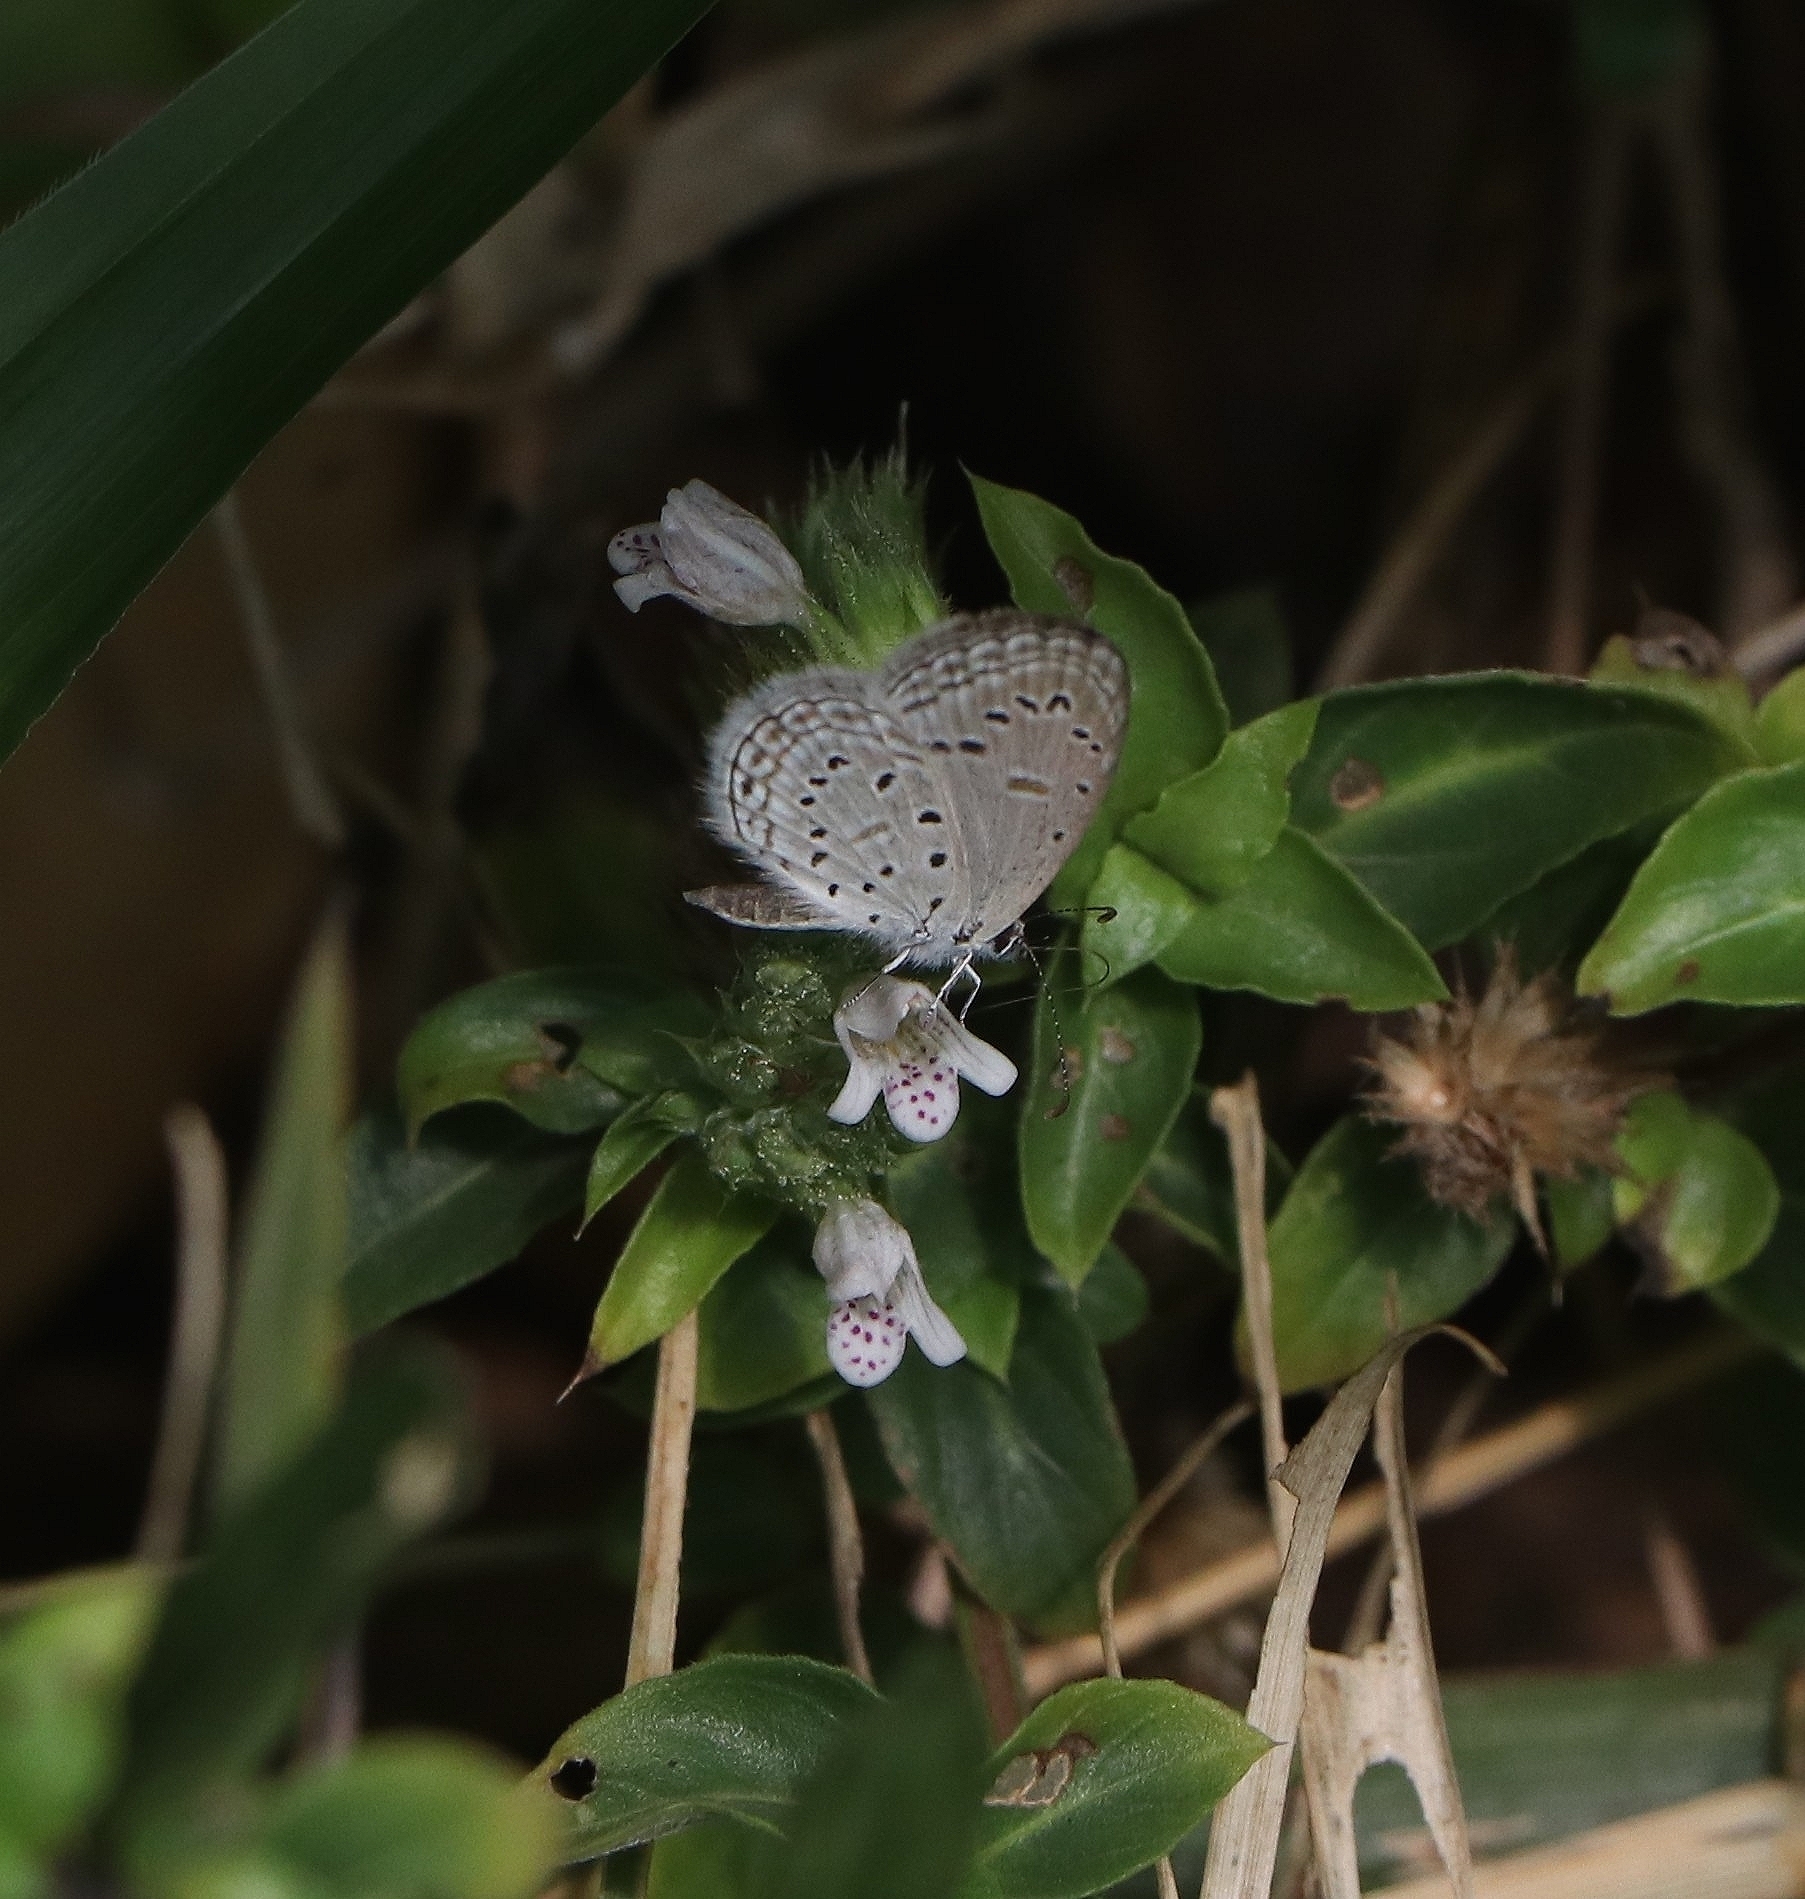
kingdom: Animalia
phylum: Arthropoda
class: Insecta
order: Lepidoptera
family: Lycaenidae
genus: Zizula
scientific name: Zizula hylax
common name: Gaika blue
